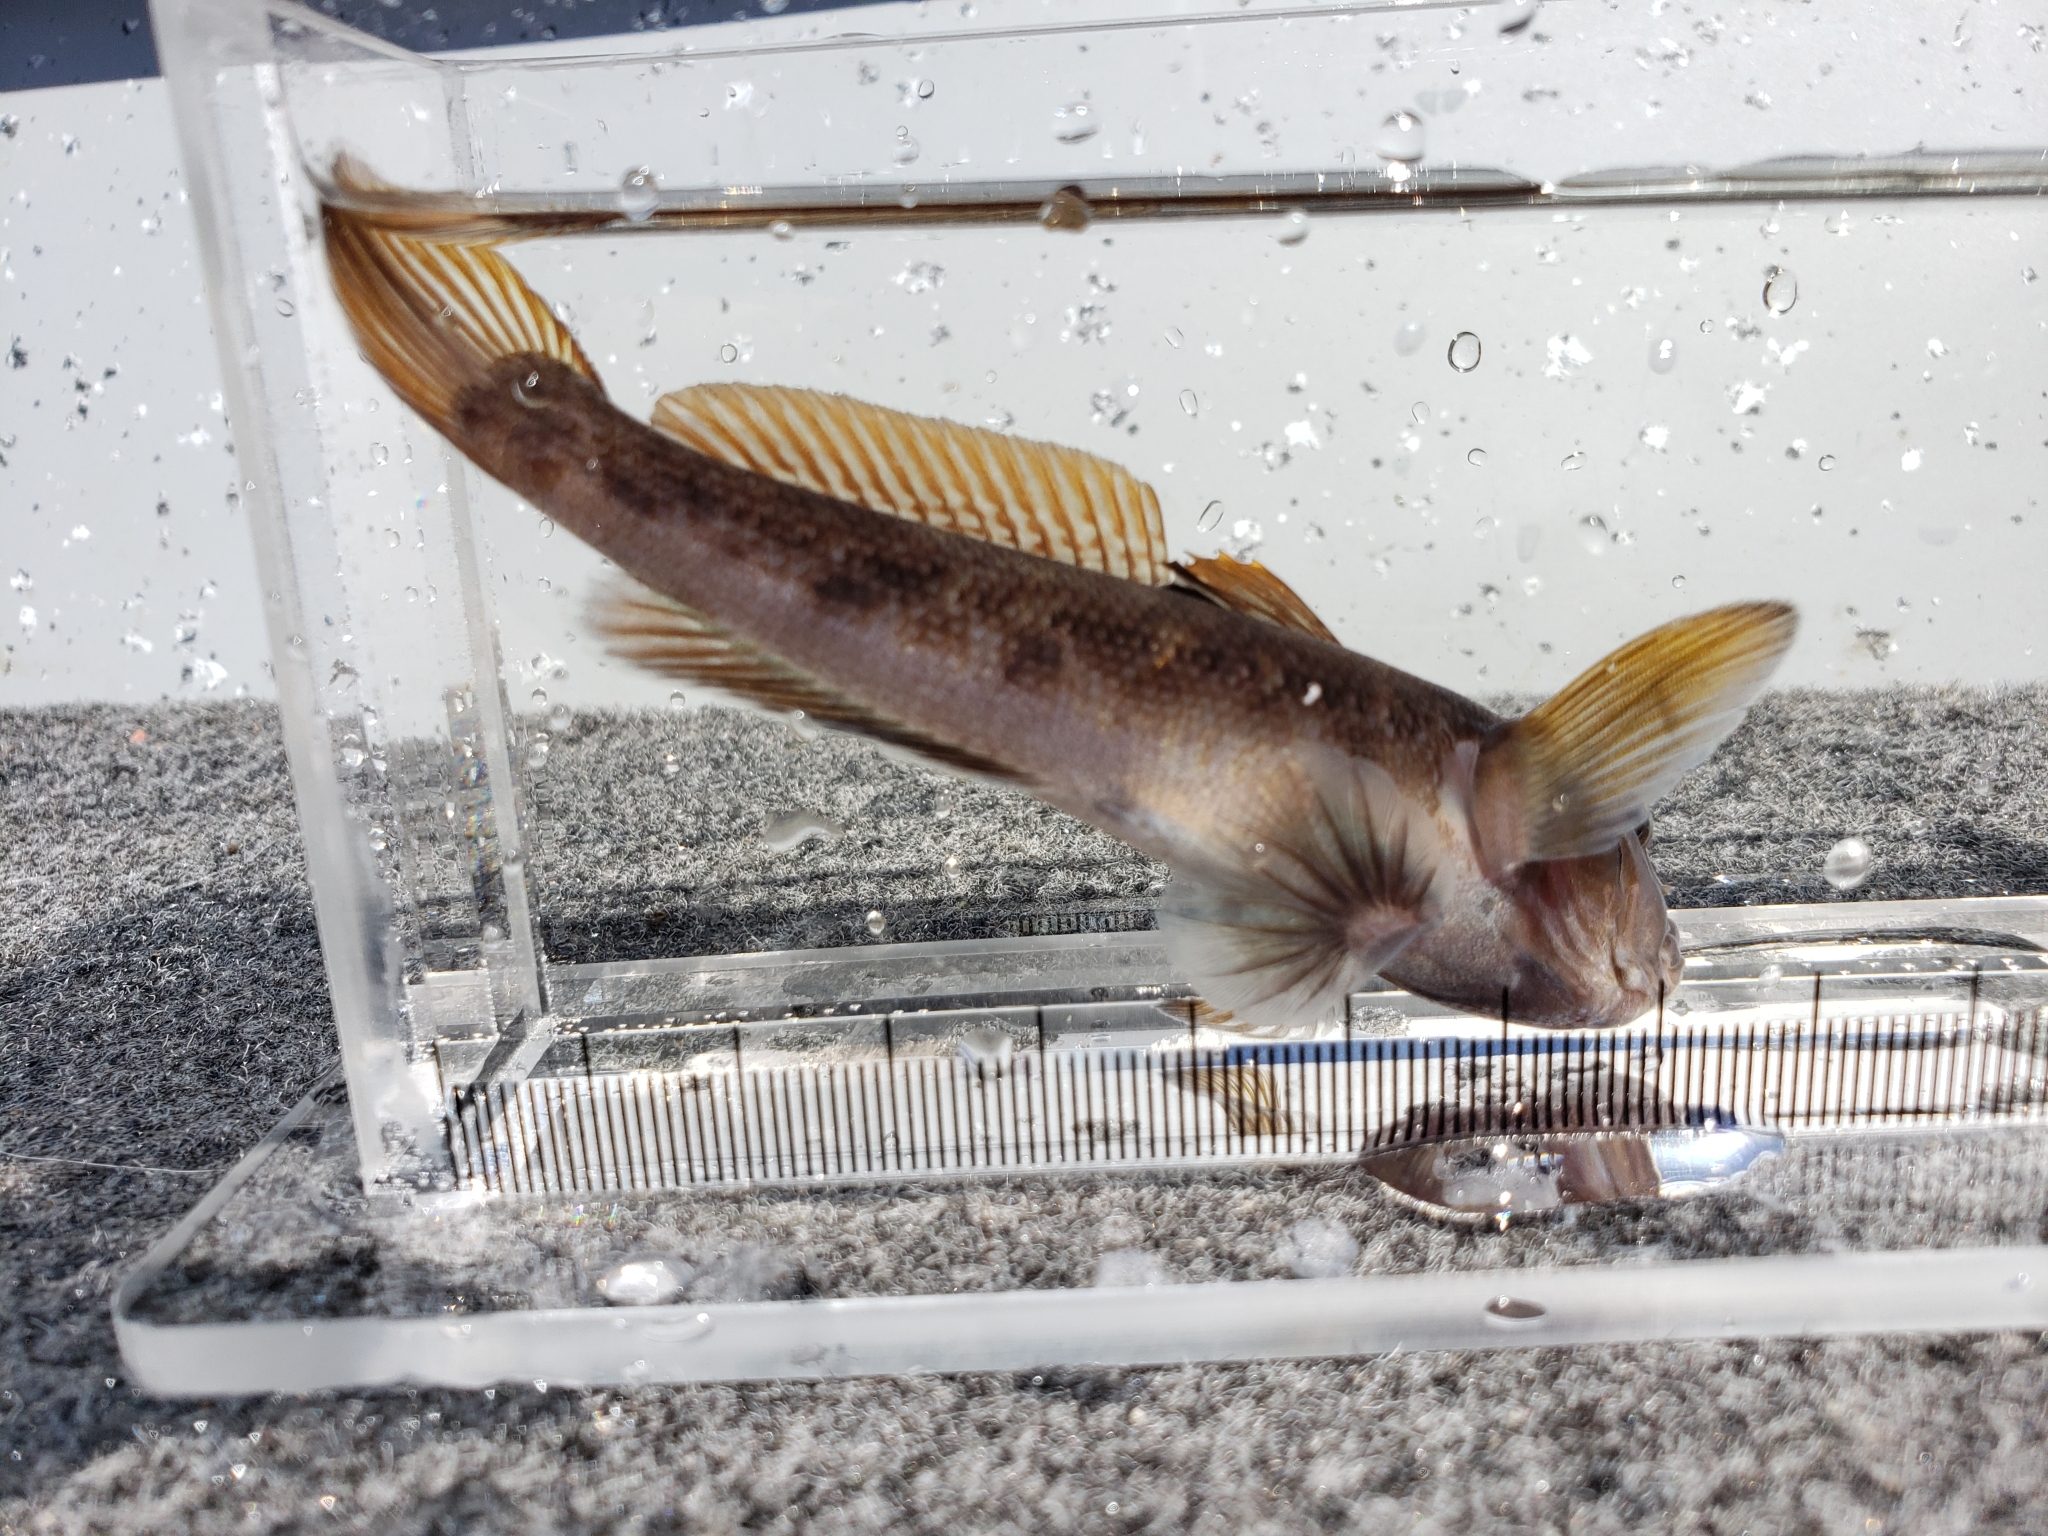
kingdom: Animalia
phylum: Chordata
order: Perciformes
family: Gobiidae
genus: Neogobius
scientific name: Neogobius melanostomus
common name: Round goby
